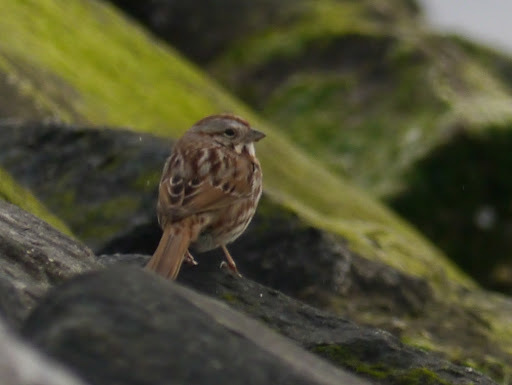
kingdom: Animalia
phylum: Chordata
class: Aves
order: Passeriformes
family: Passerellidae
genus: Melospiza
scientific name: Melospiza melodia
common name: Song sparrow
